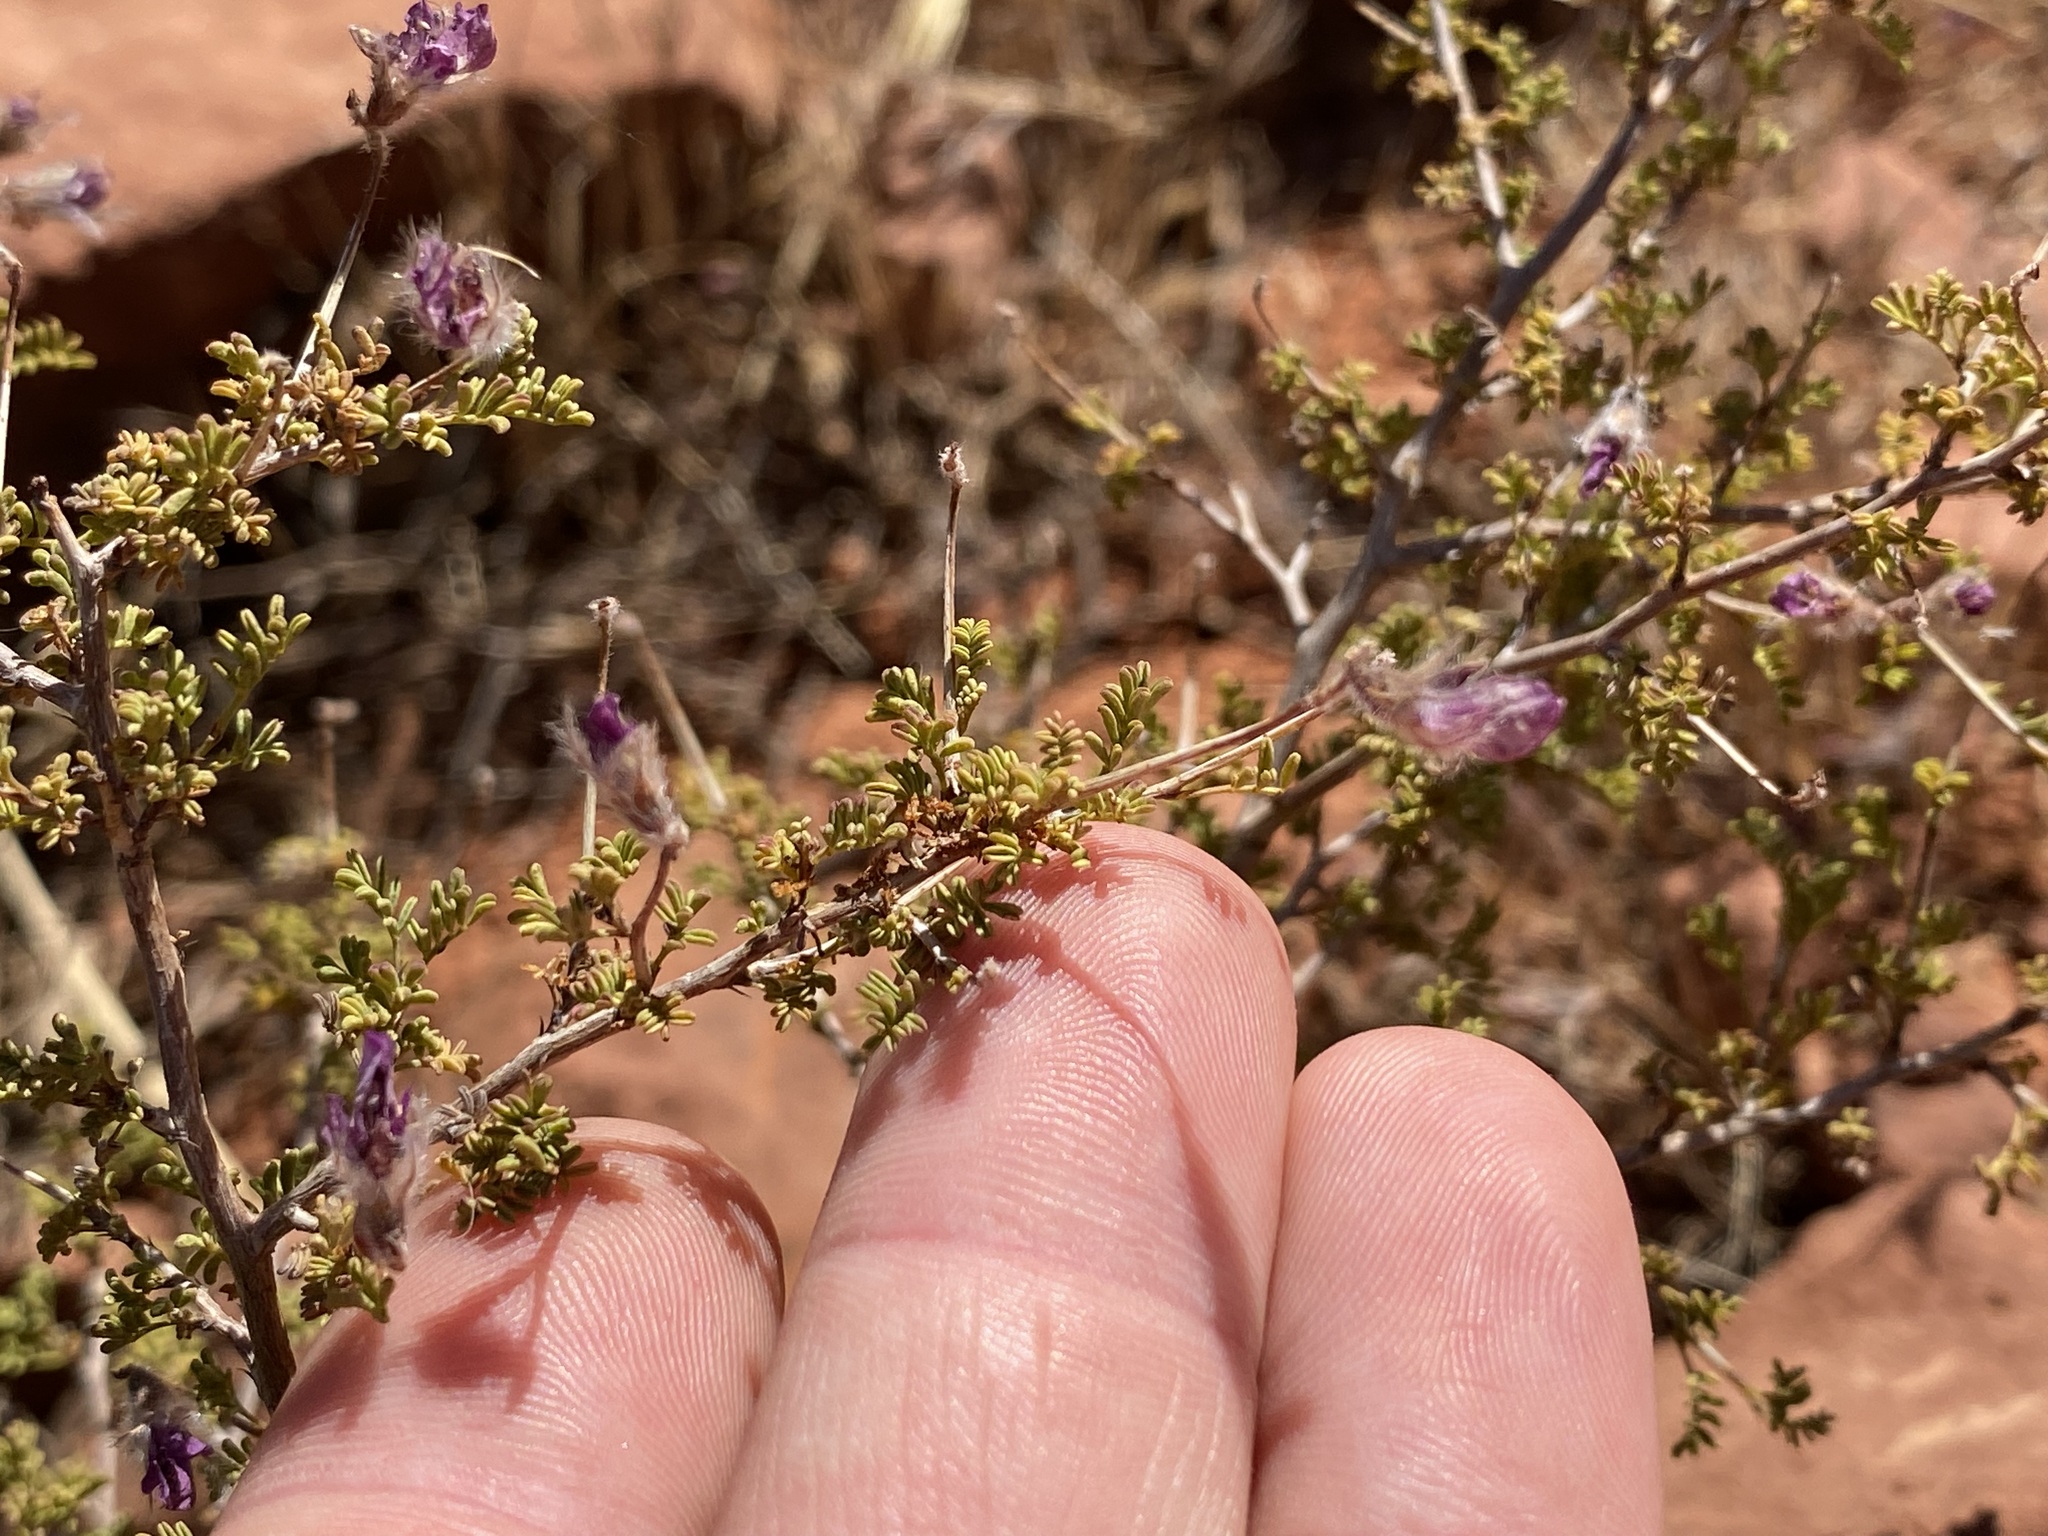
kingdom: Plantae
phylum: Tracheophyta
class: Magnoliopsida
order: Fabales
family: Fabaceae
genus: Dalea
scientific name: Dalea formosa
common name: Feather-plume dalea
